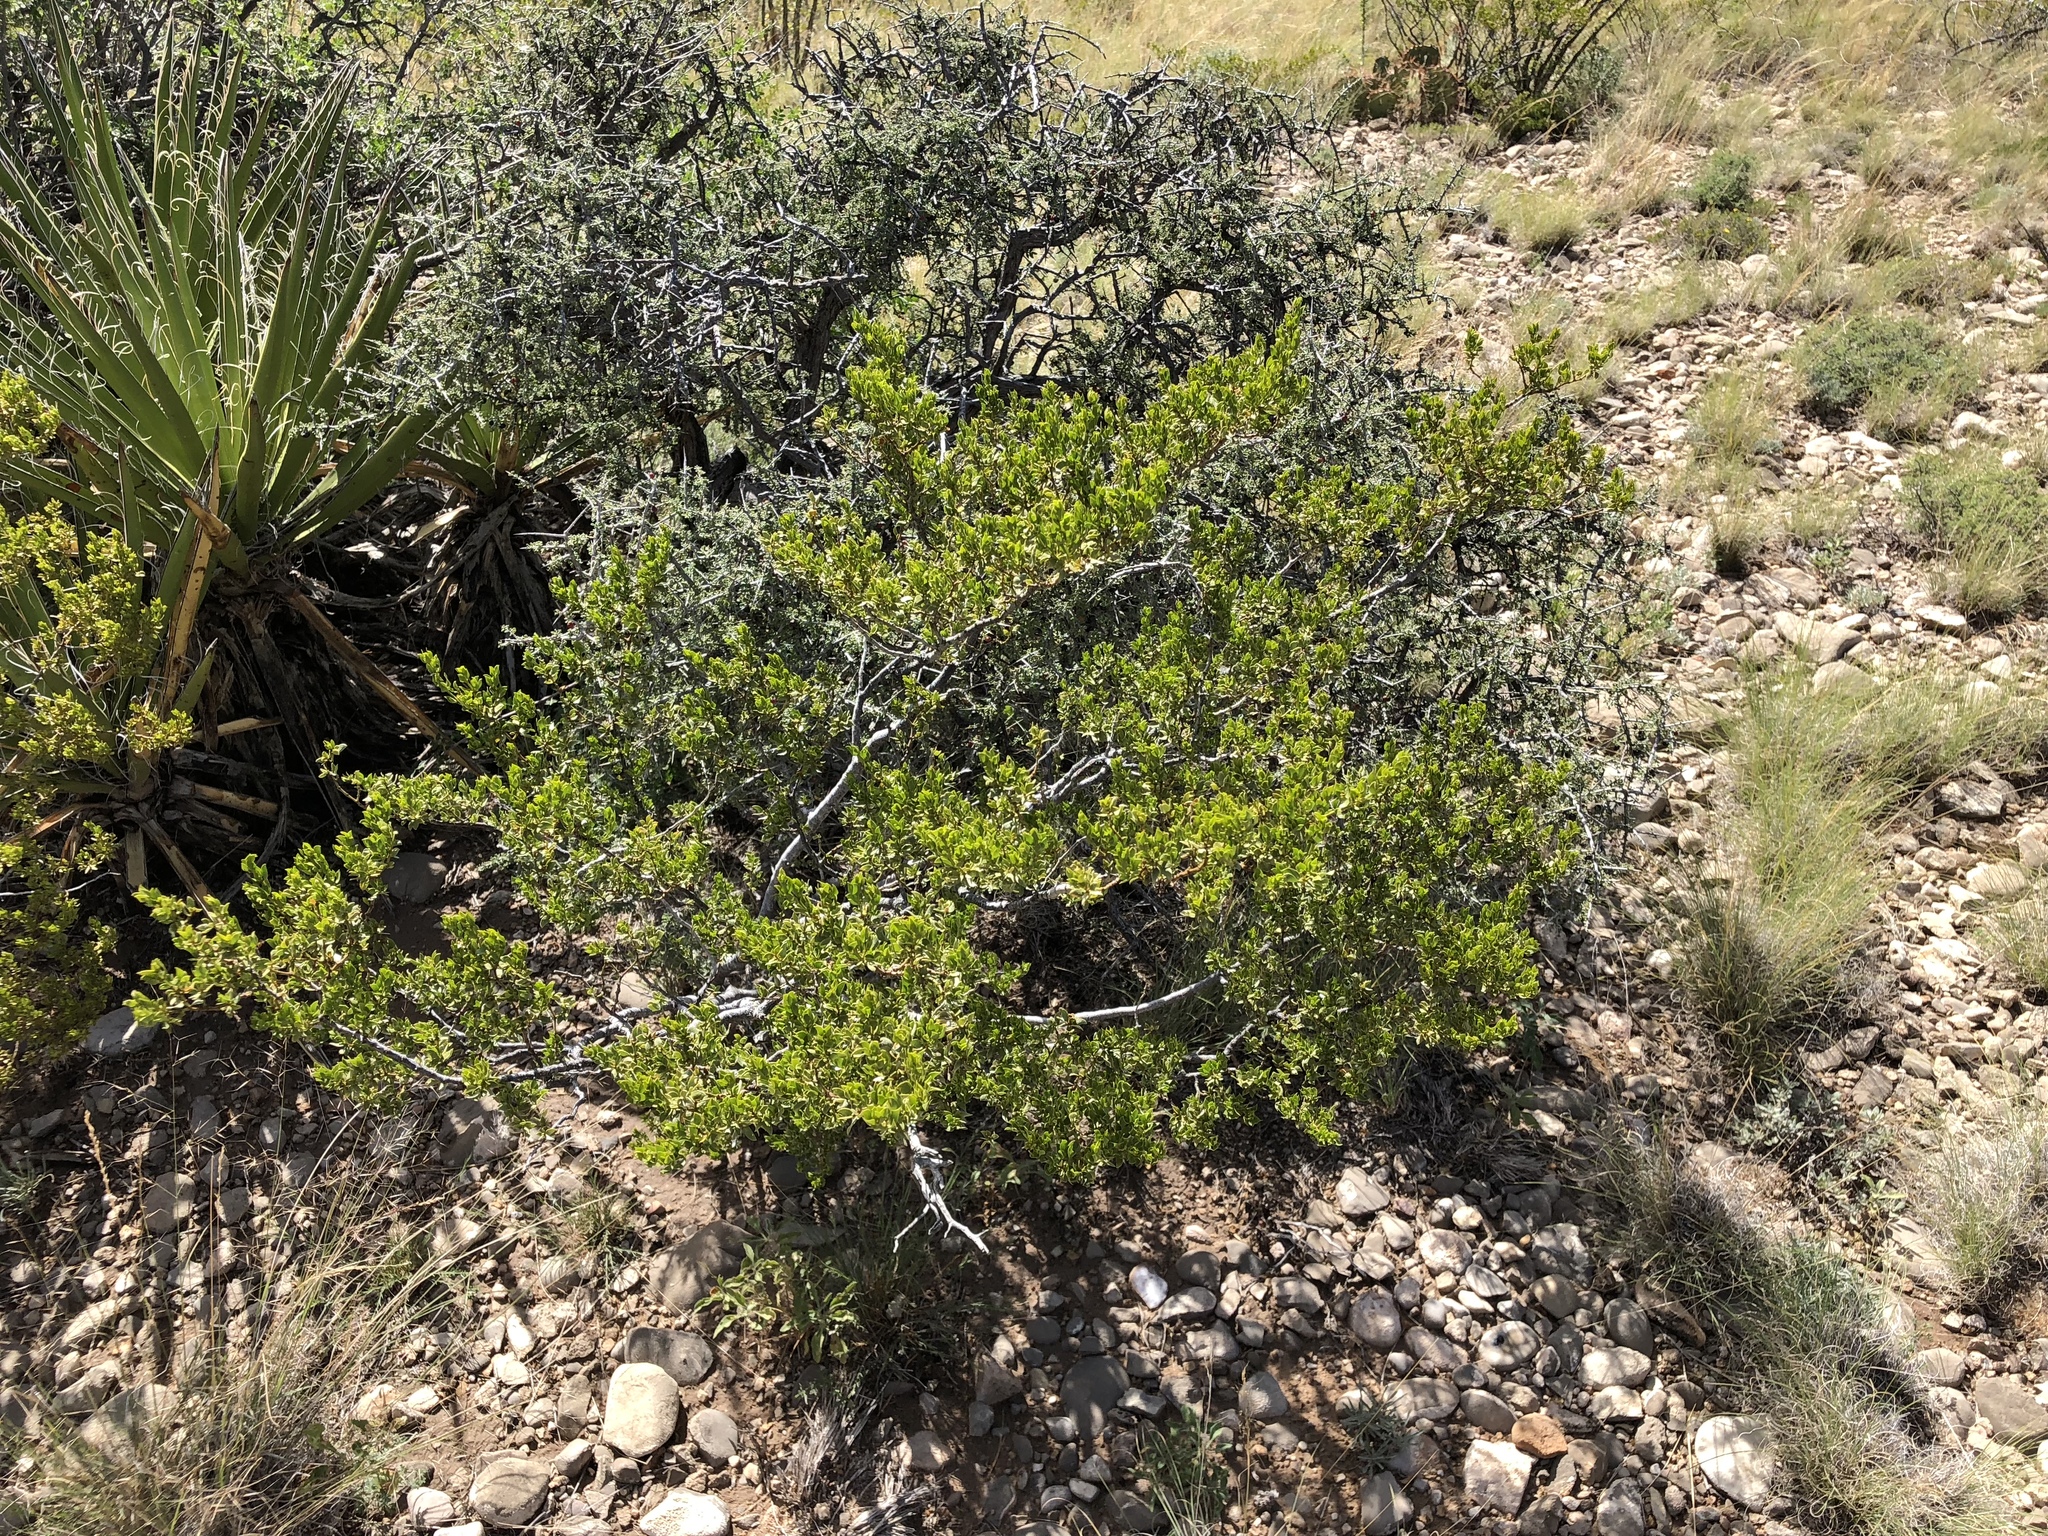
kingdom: Plantae
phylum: Tracheophyta
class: Magnoliopsida
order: Zygophyllales
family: Zygophyllaceae
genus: Larrea
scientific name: Larrea tridentata
